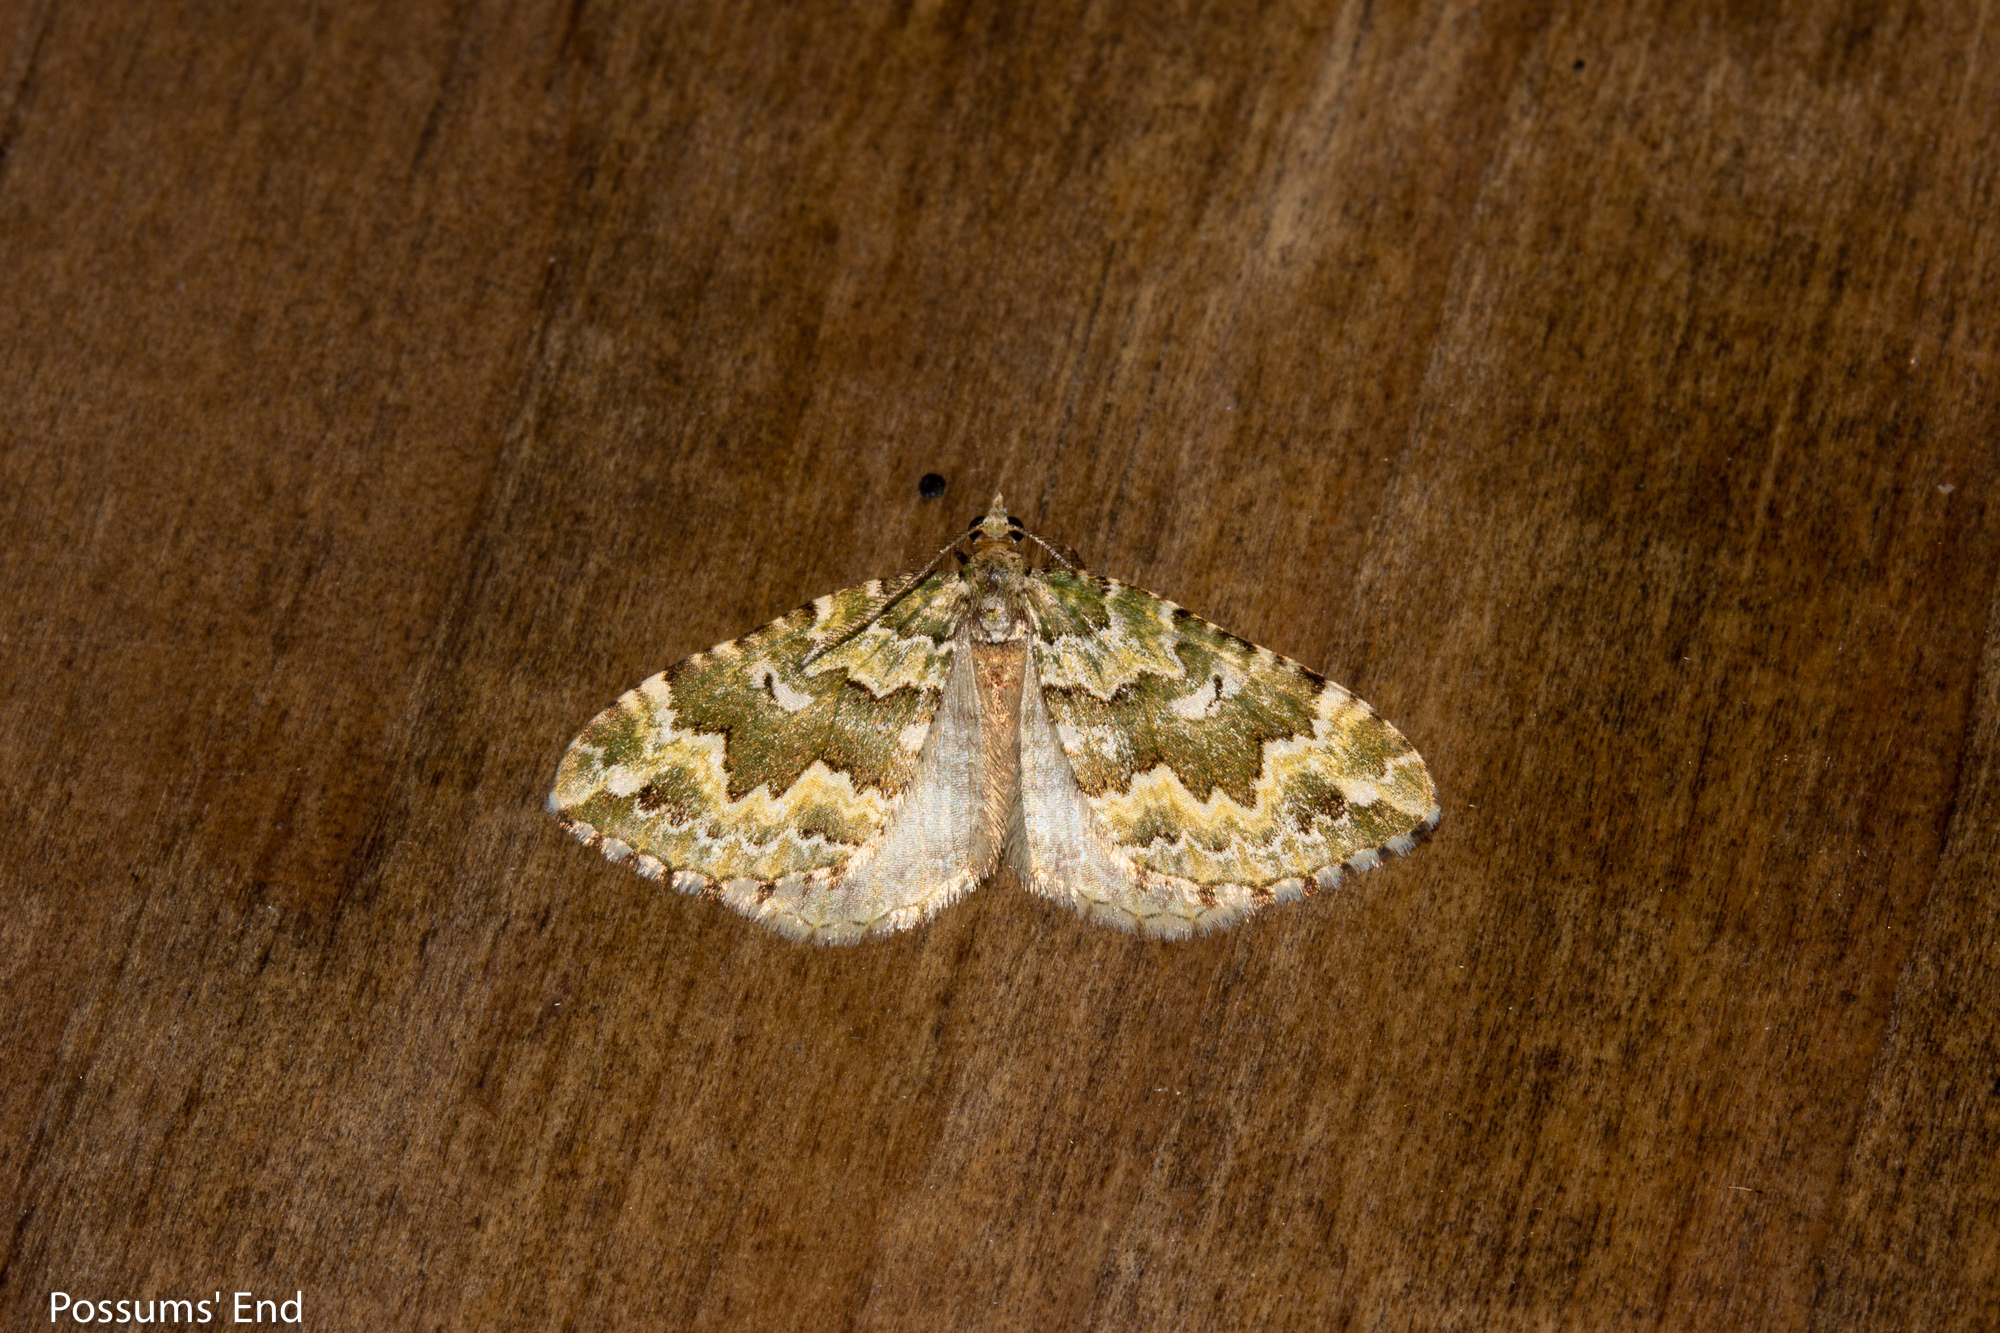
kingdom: Animalia
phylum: Arthropoda
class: Insecta
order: Lepidoptera
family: Geometridae
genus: Asaphodes
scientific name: Asaphodes beata
